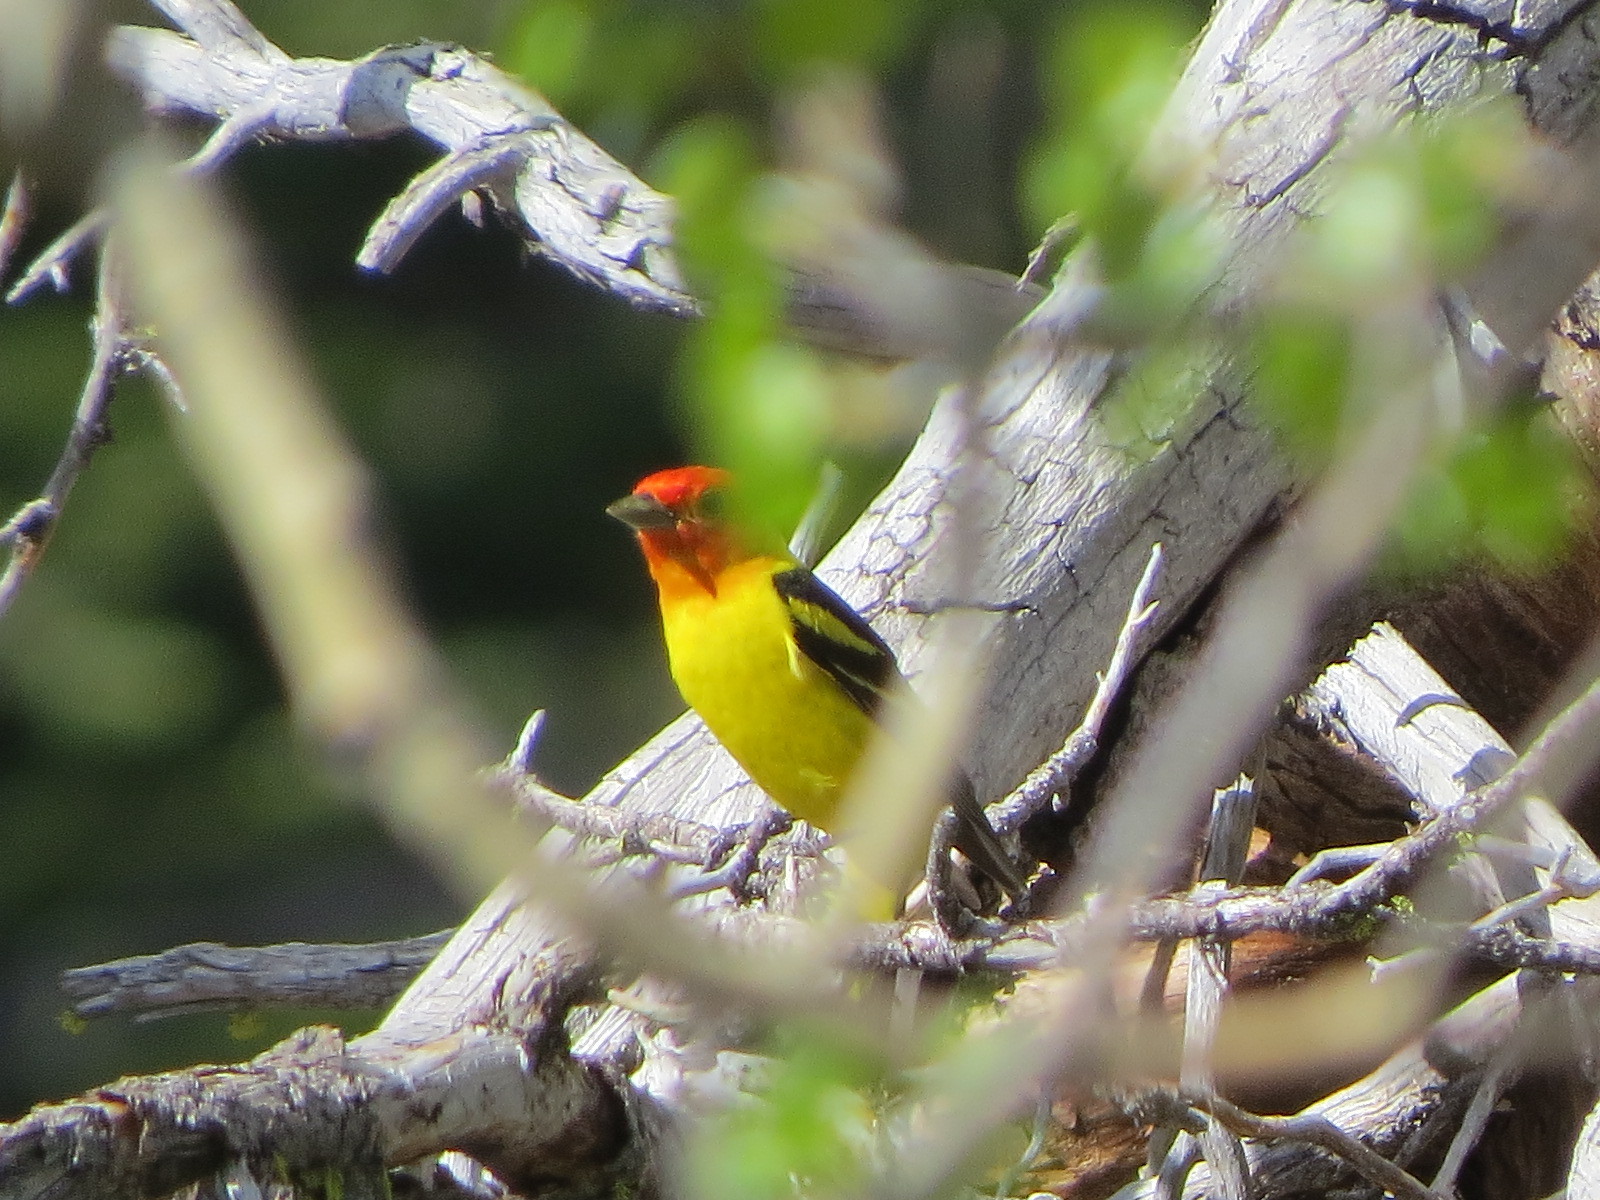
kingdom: Animalia
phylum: Chordata
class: Aves
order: Passeriformes
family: Cardinalidae
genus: Piranga
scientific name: Piranga ludoviciana
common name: Western tanager
